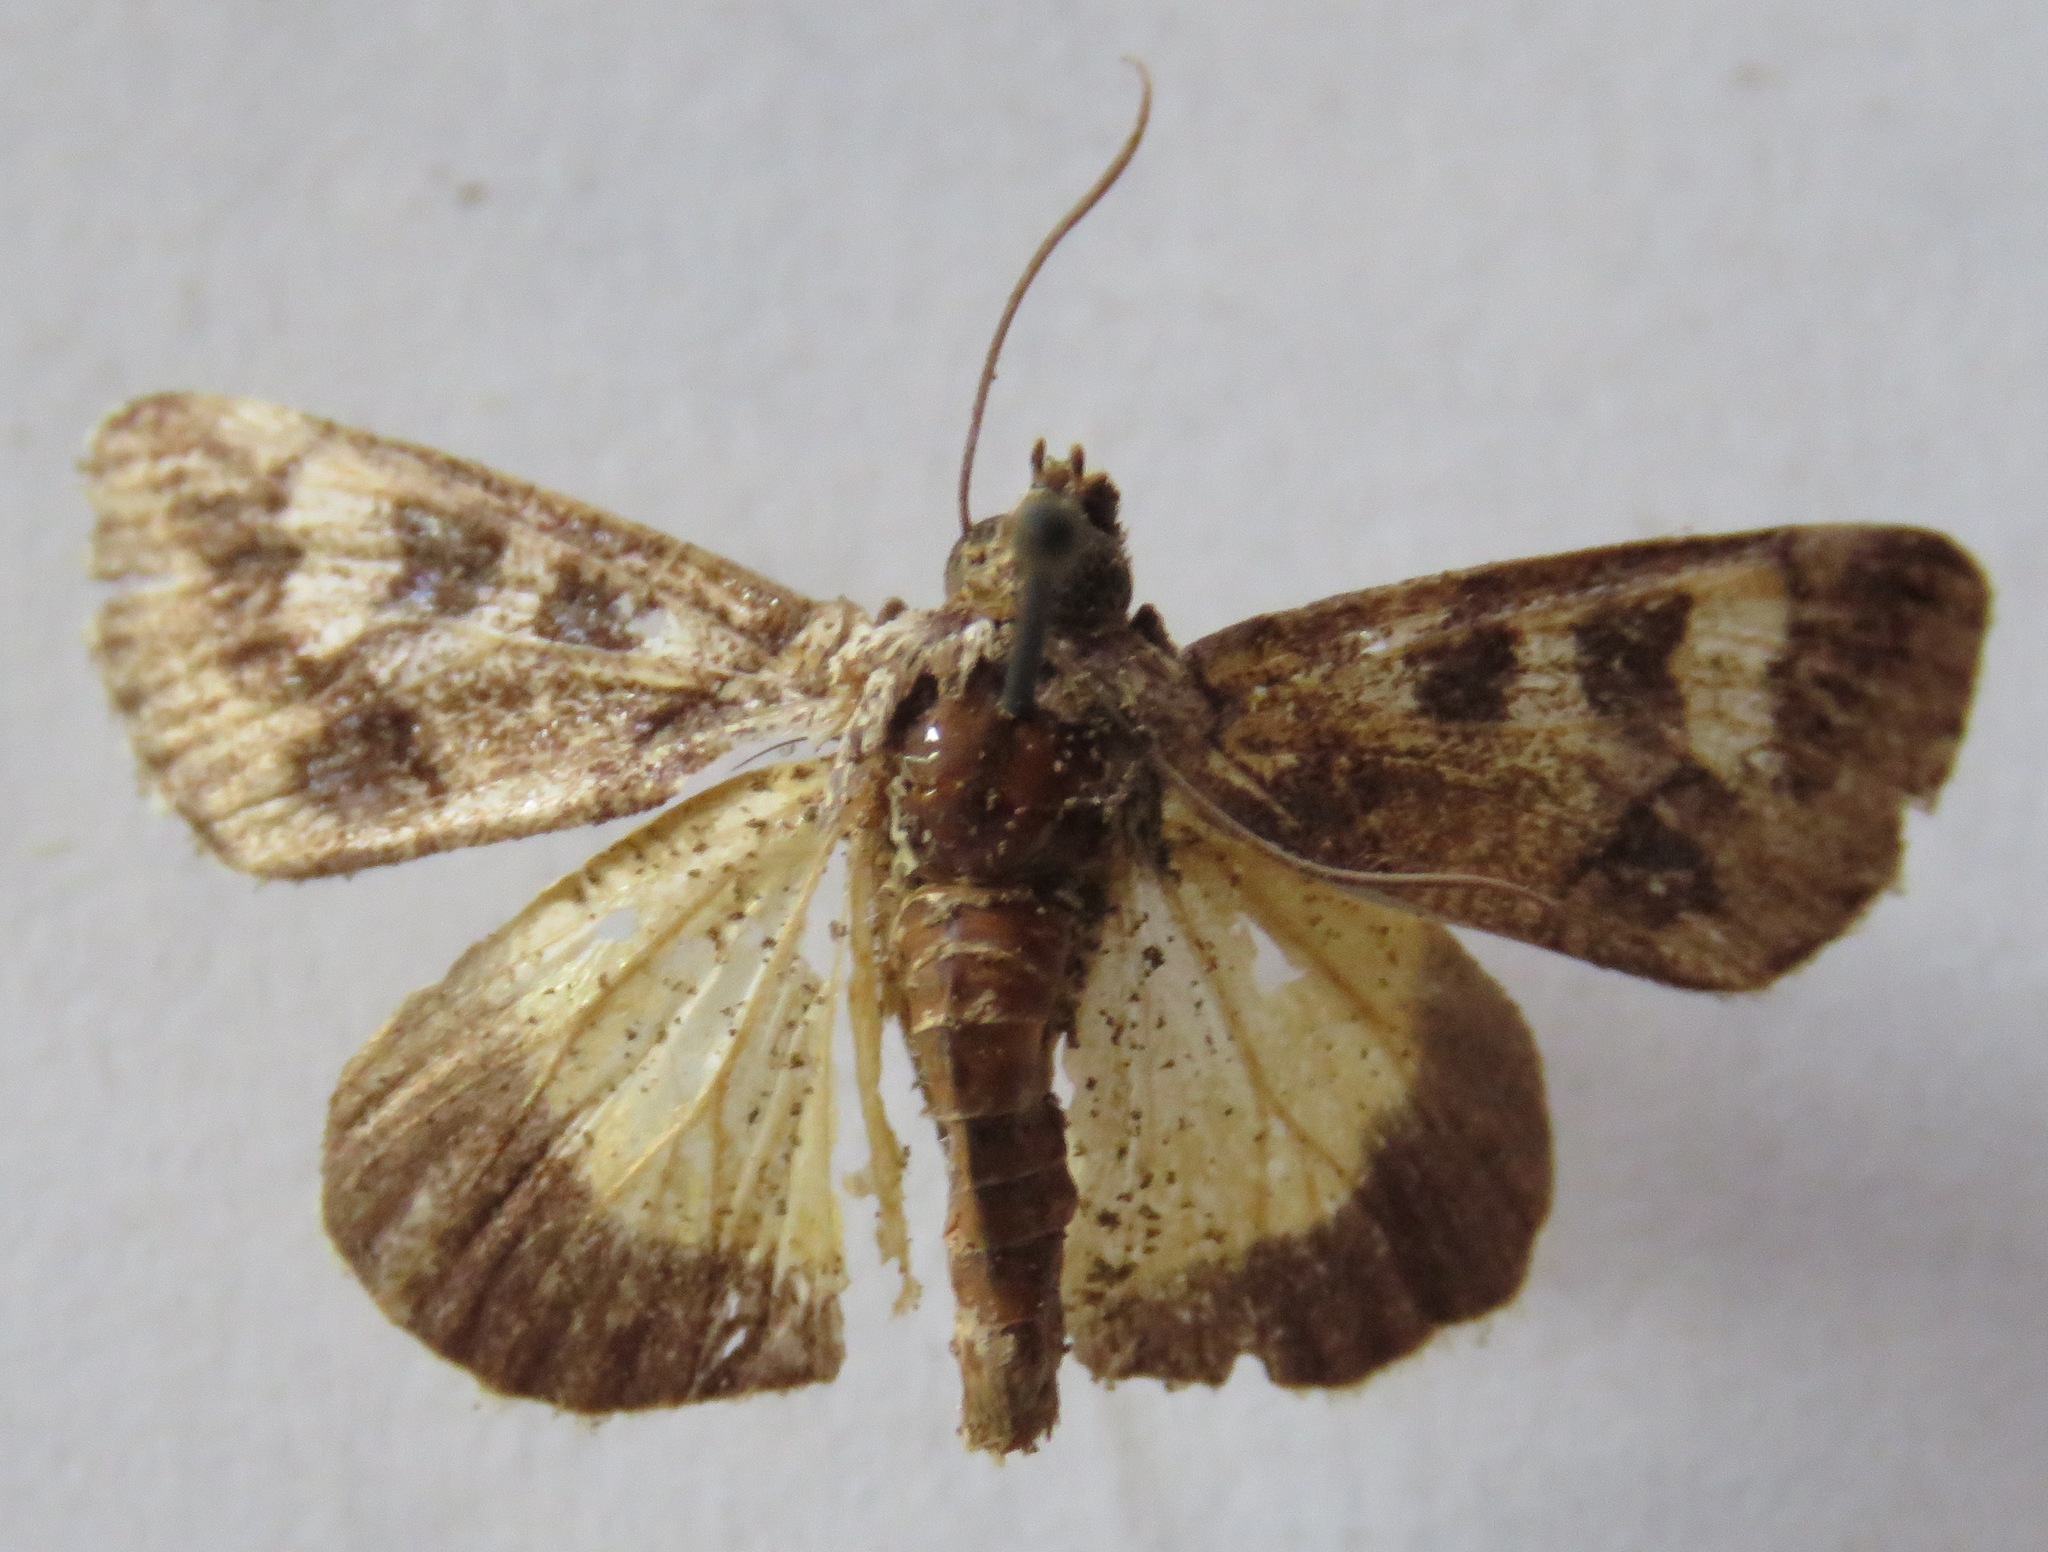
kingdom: Animalia
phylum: Arthropoda
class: Insecta
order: Lepidoptera
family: Noctuidae
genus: Neotuerta
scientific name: Neotuerta sabulosa
